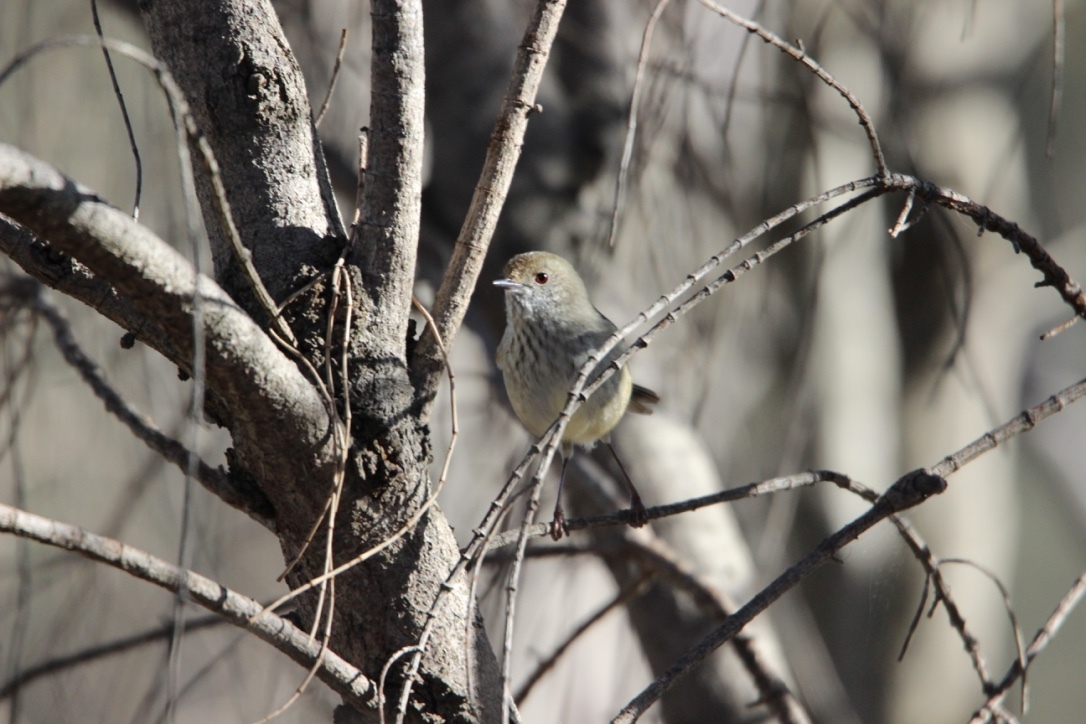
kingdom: Animalia
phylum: Chordata
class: Aves
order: Passeriformes
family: Acanthizidae
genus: Acanthiza
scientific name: Acanthiza pusilla
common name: Brown thornbill
